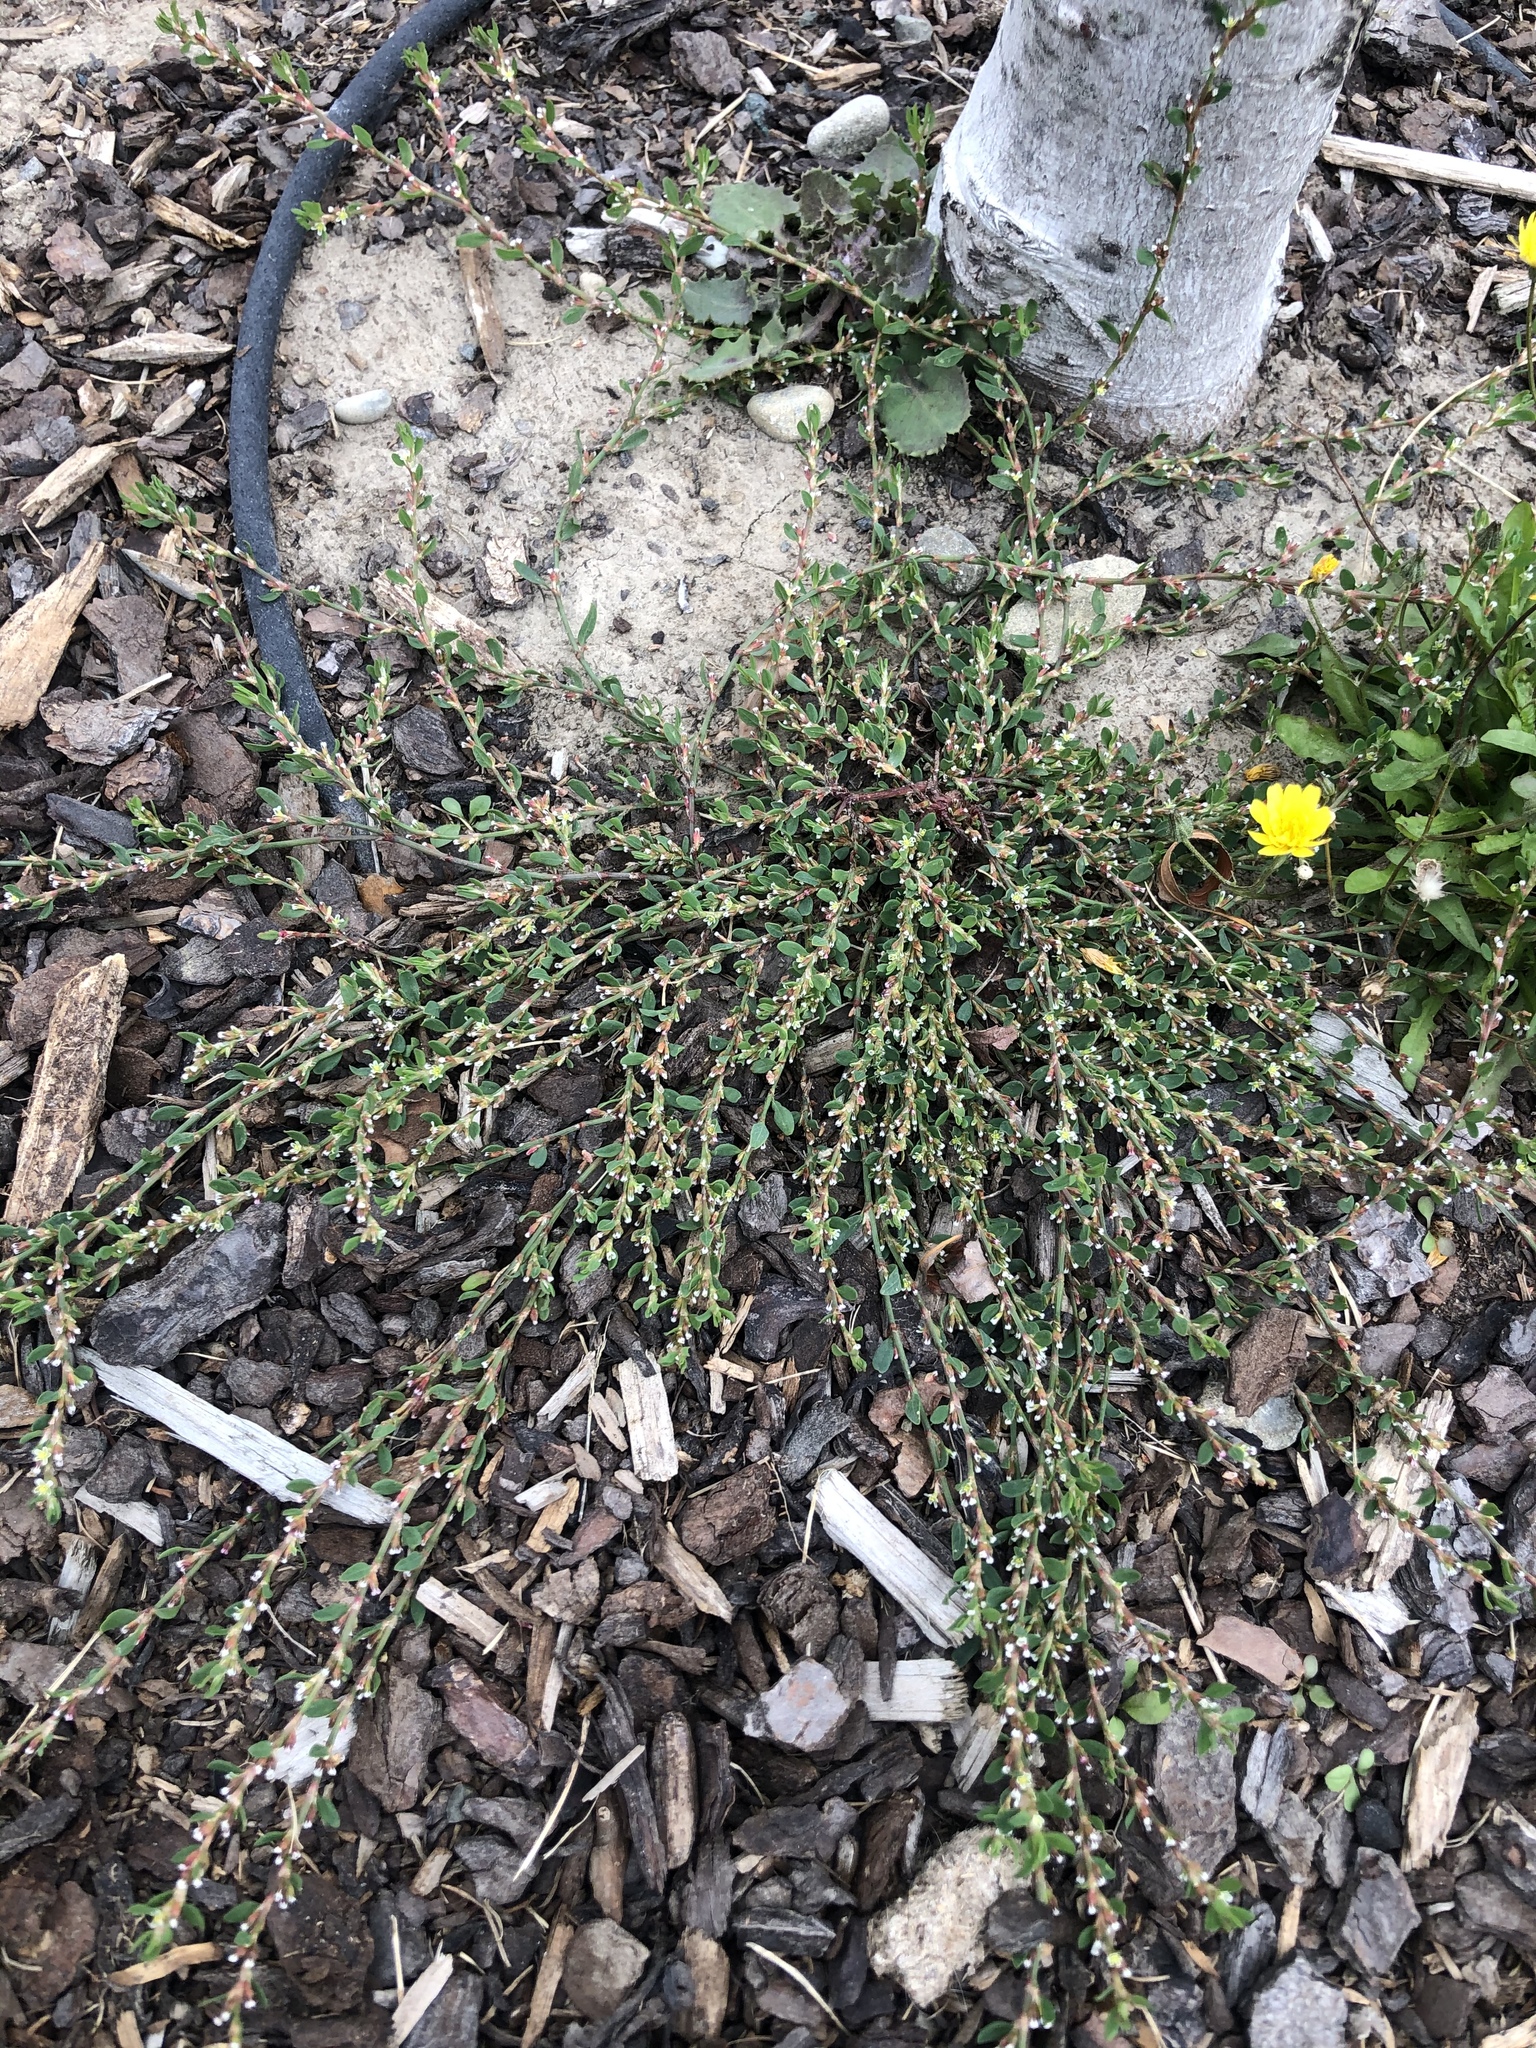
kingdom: Plantae
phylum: Tracheophyta
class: Magnoliopsida
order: Caryophyllales
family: Polygonaceae
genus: Polygonum
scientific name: Polygonum aviculare
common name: Prostrate knotweed
